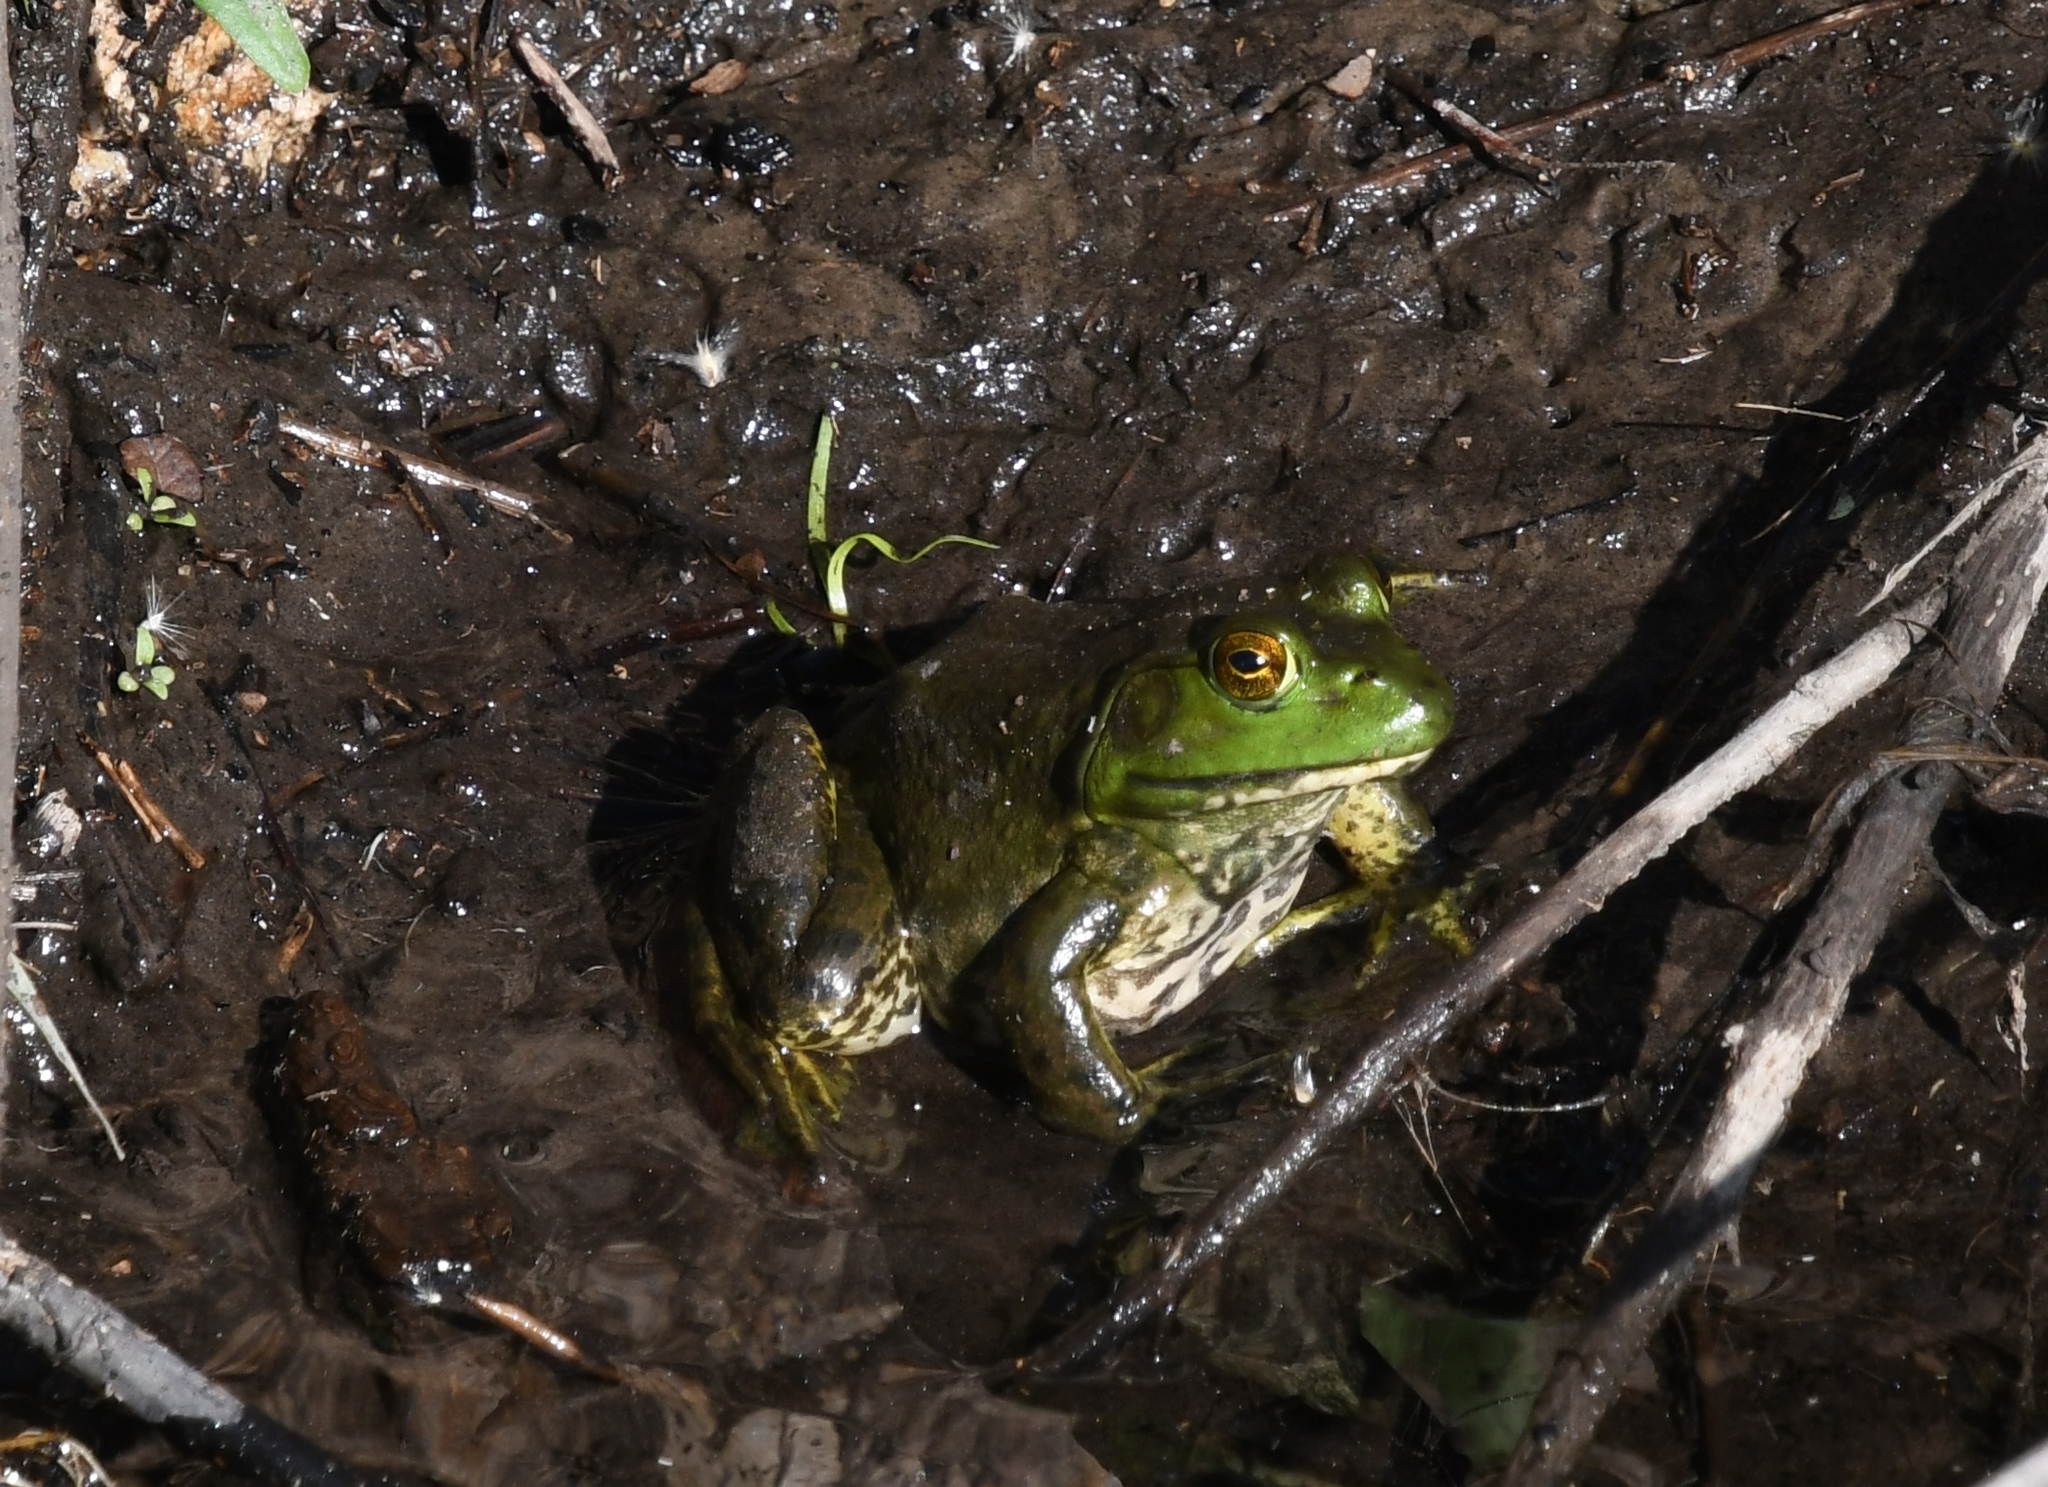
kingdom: Animalia
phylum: Chordata
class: Amphibia
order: Anura
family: Ranidae
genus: Lithobates
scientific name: Lithobates catesbeianus
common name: American bullfrog
